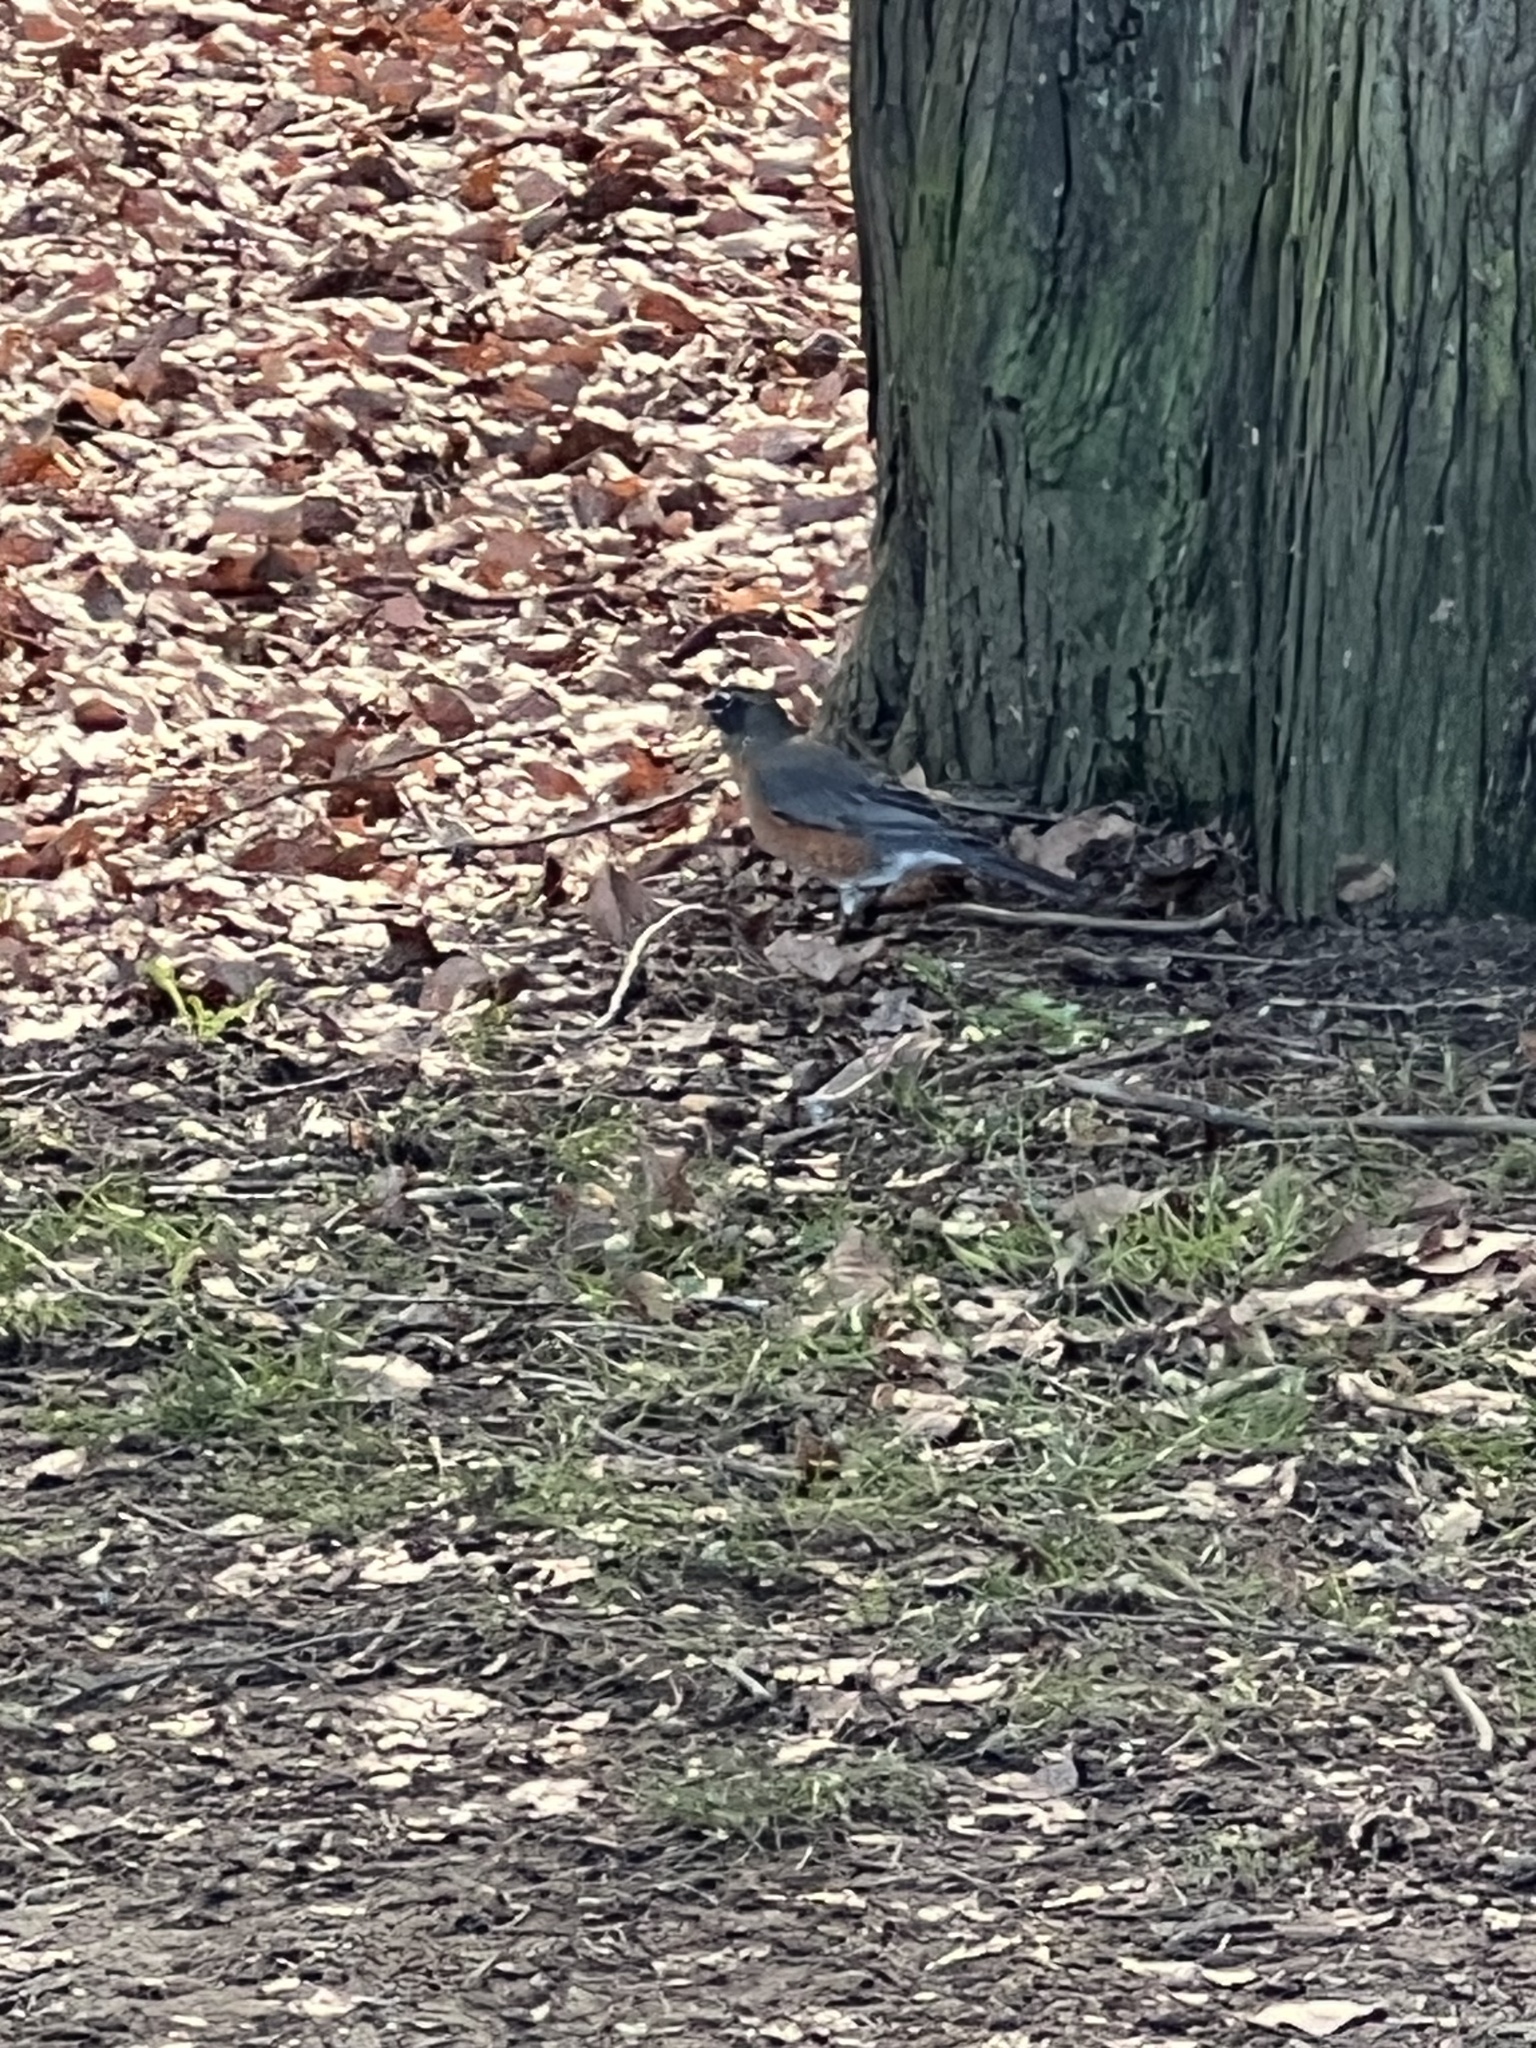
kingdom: Animalia
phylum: Chordata
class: Aves
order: Passeriformes
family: Turdidae
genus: Turdus
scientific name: Turdus migratorius
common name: American robin
